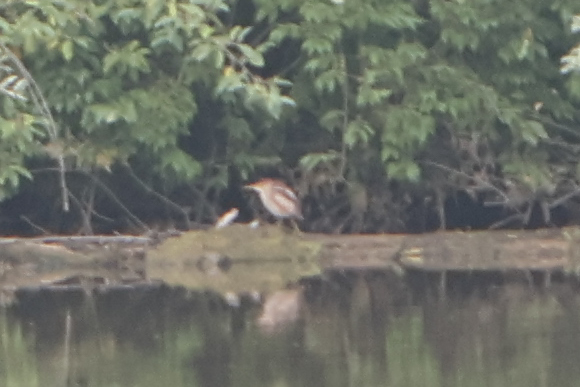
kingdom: Animalia
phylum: Chordata
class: Aves
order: Pelecaniformes
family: Ardeidae
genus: Ixobrychus
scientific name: Ixobrychus exilis
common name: Least bittern
